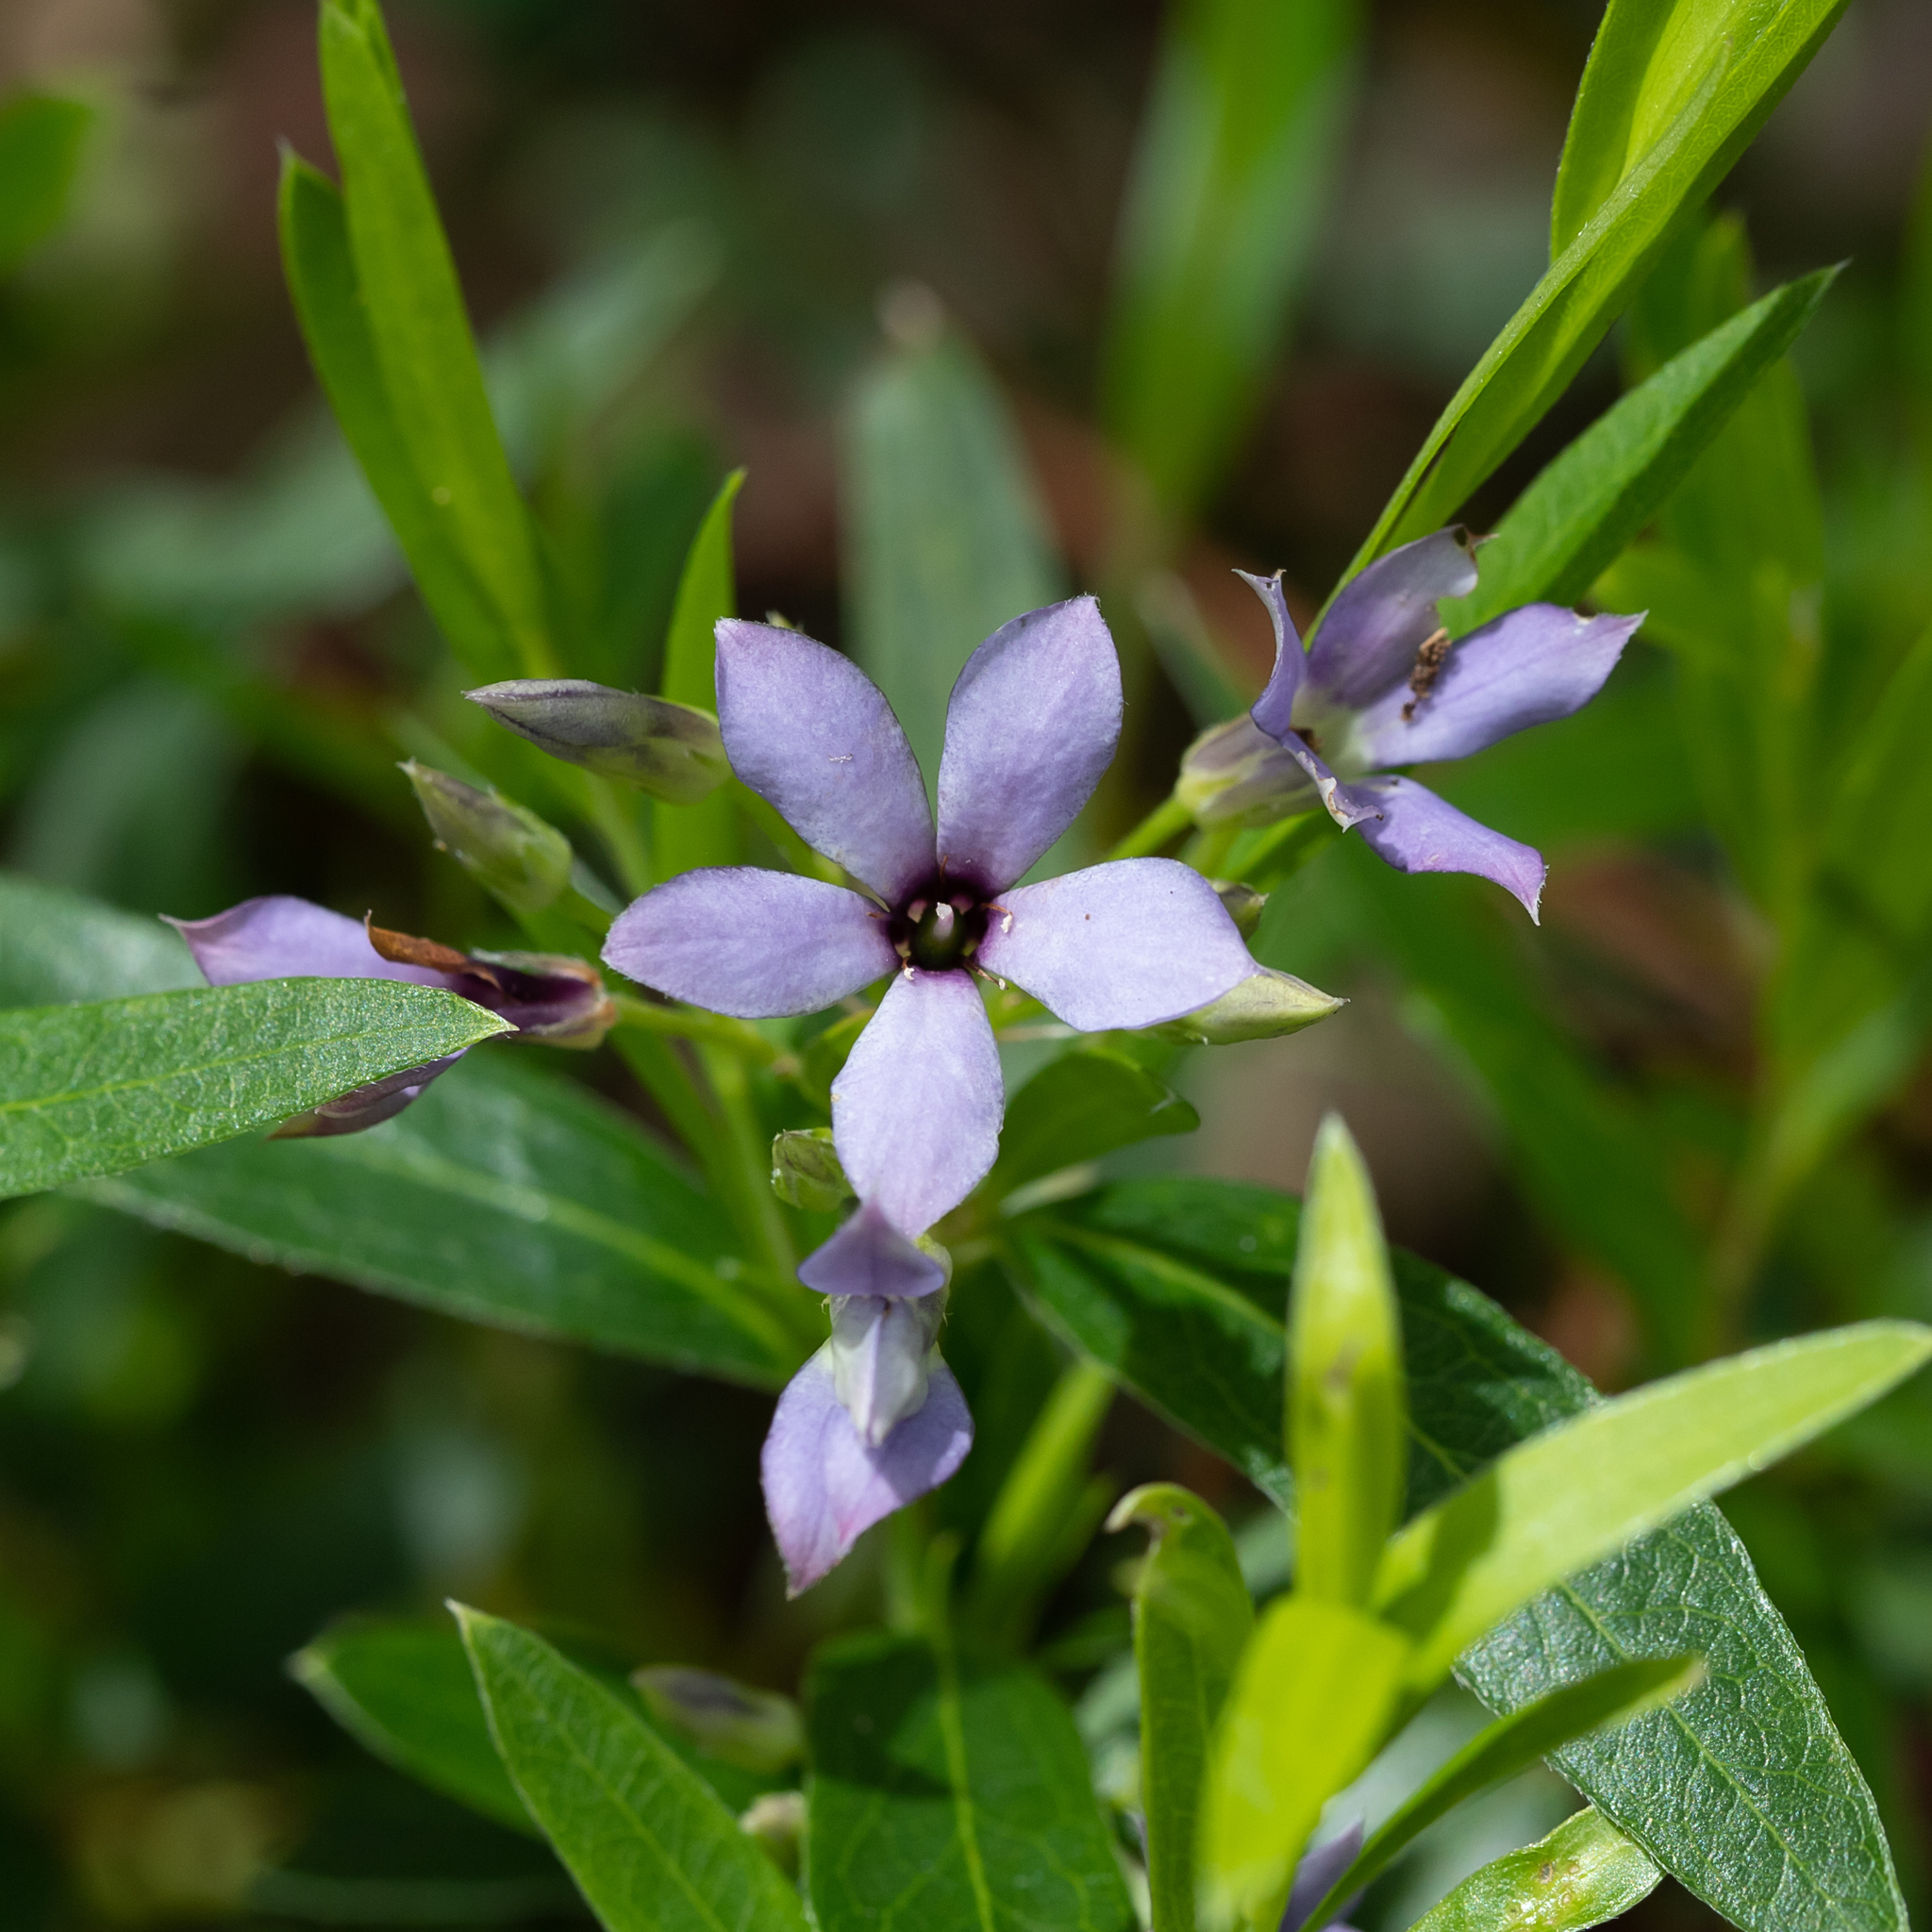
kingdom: Plantae
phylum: Tracheophyta
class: Magnoliopsida
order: Apiales
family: Pittosporaceae
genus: Billardiera
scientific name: Billardiera cymosa
